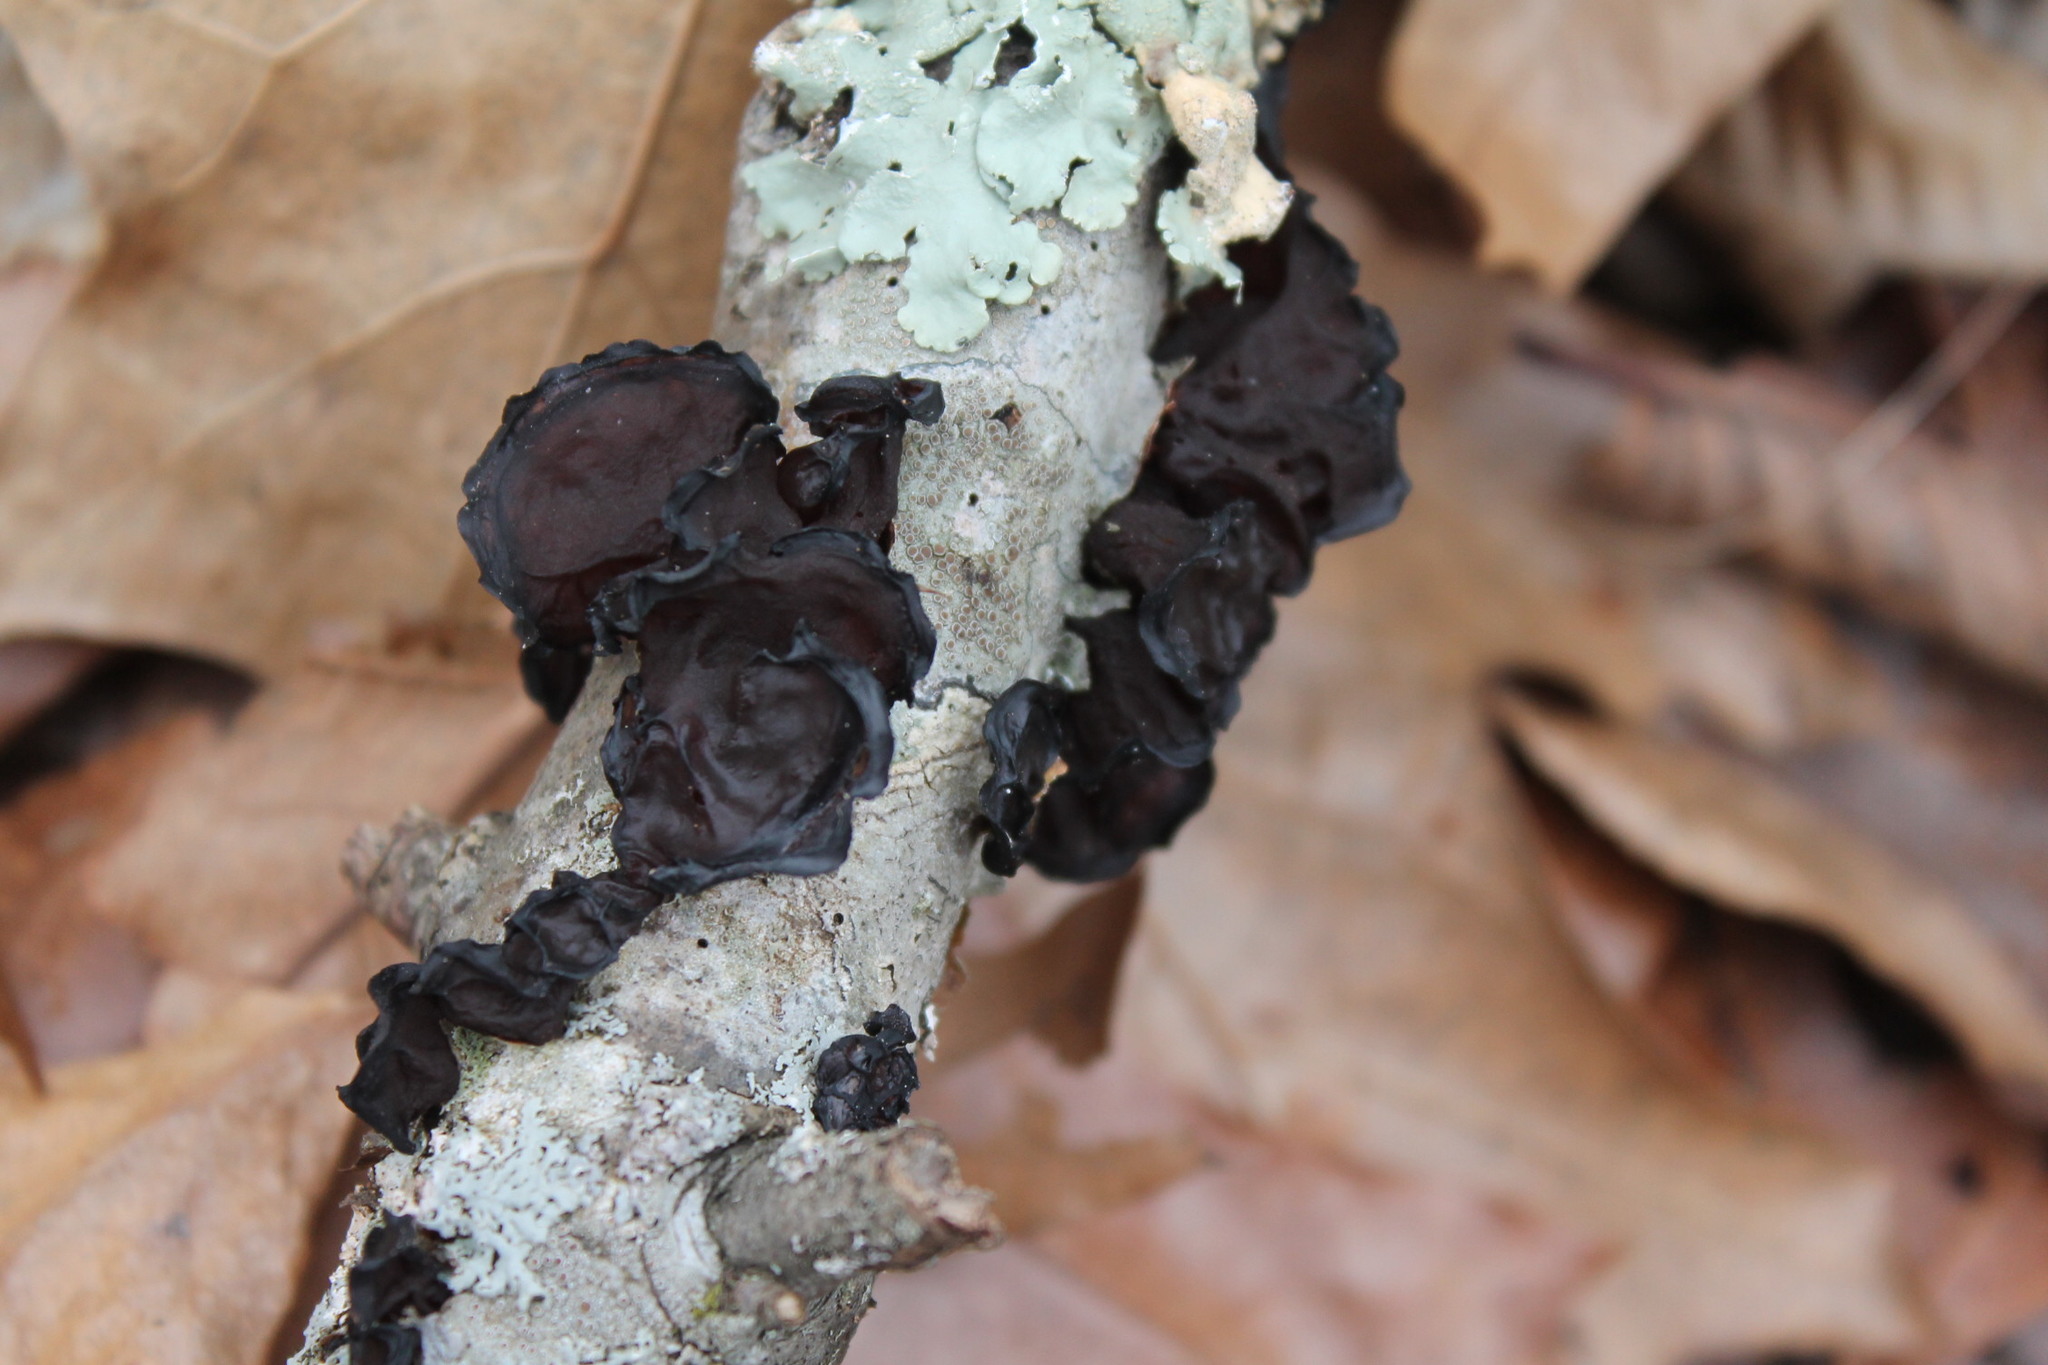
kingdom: Fungi
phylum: Basidiomycota
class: Agaricomycetes
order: Auriculariales
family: Auriculariaceae
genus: Exidia
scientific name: Exidia
